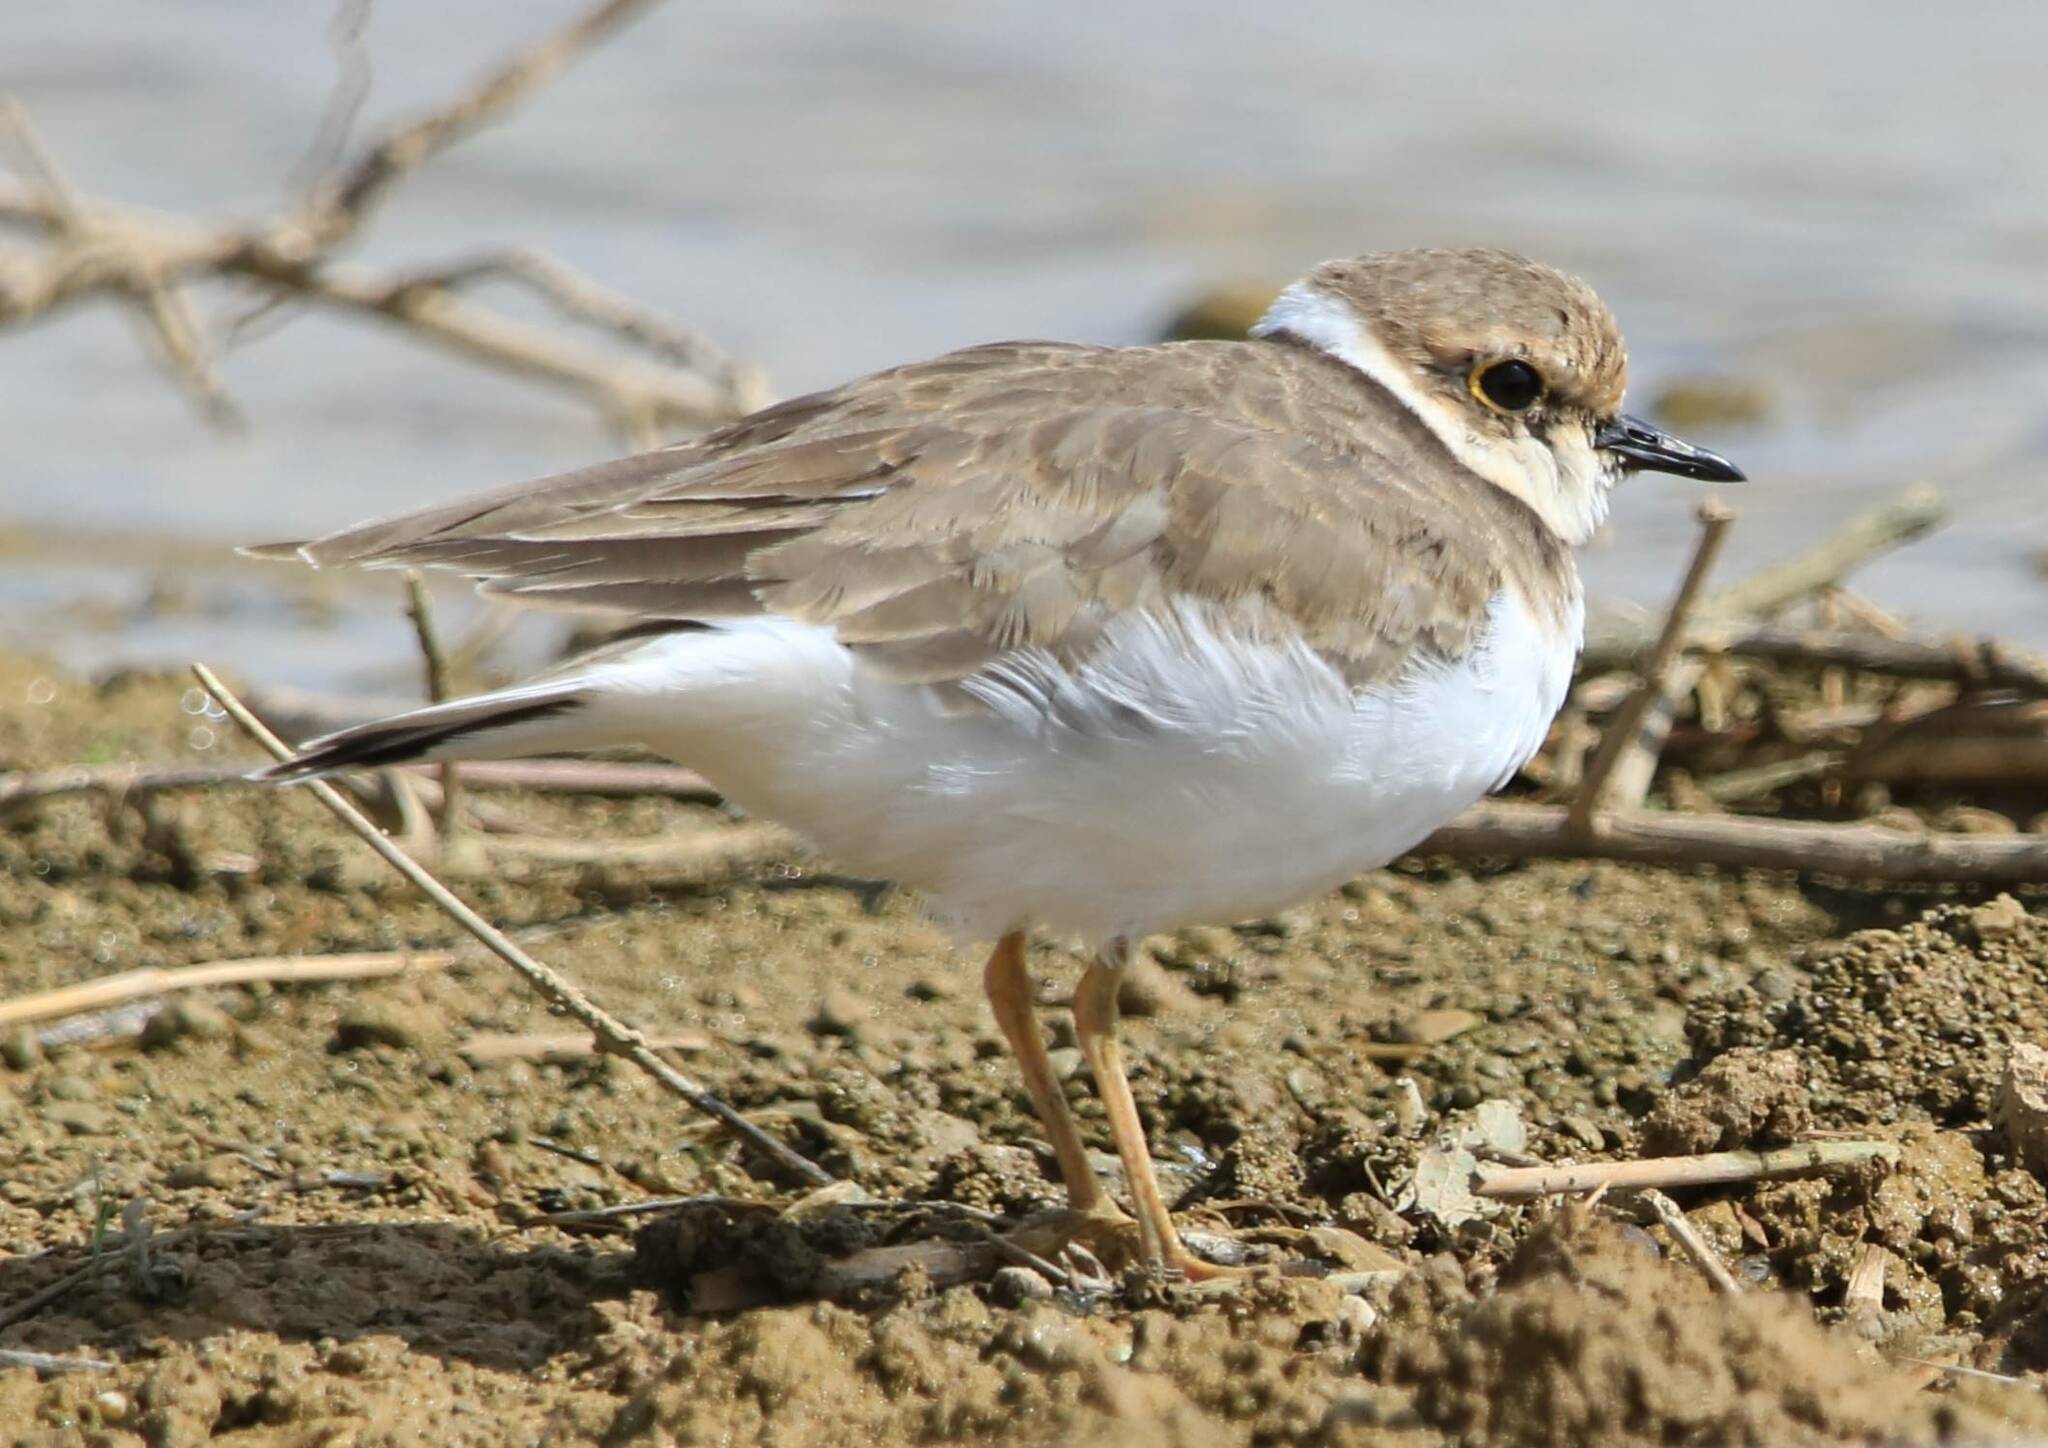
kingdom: Animalia
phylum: Chordata
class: Aves
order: Charadriiformes
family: Charadriidae
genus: Charadrius
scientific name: Charadrius dubius
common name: Little ringed plover
